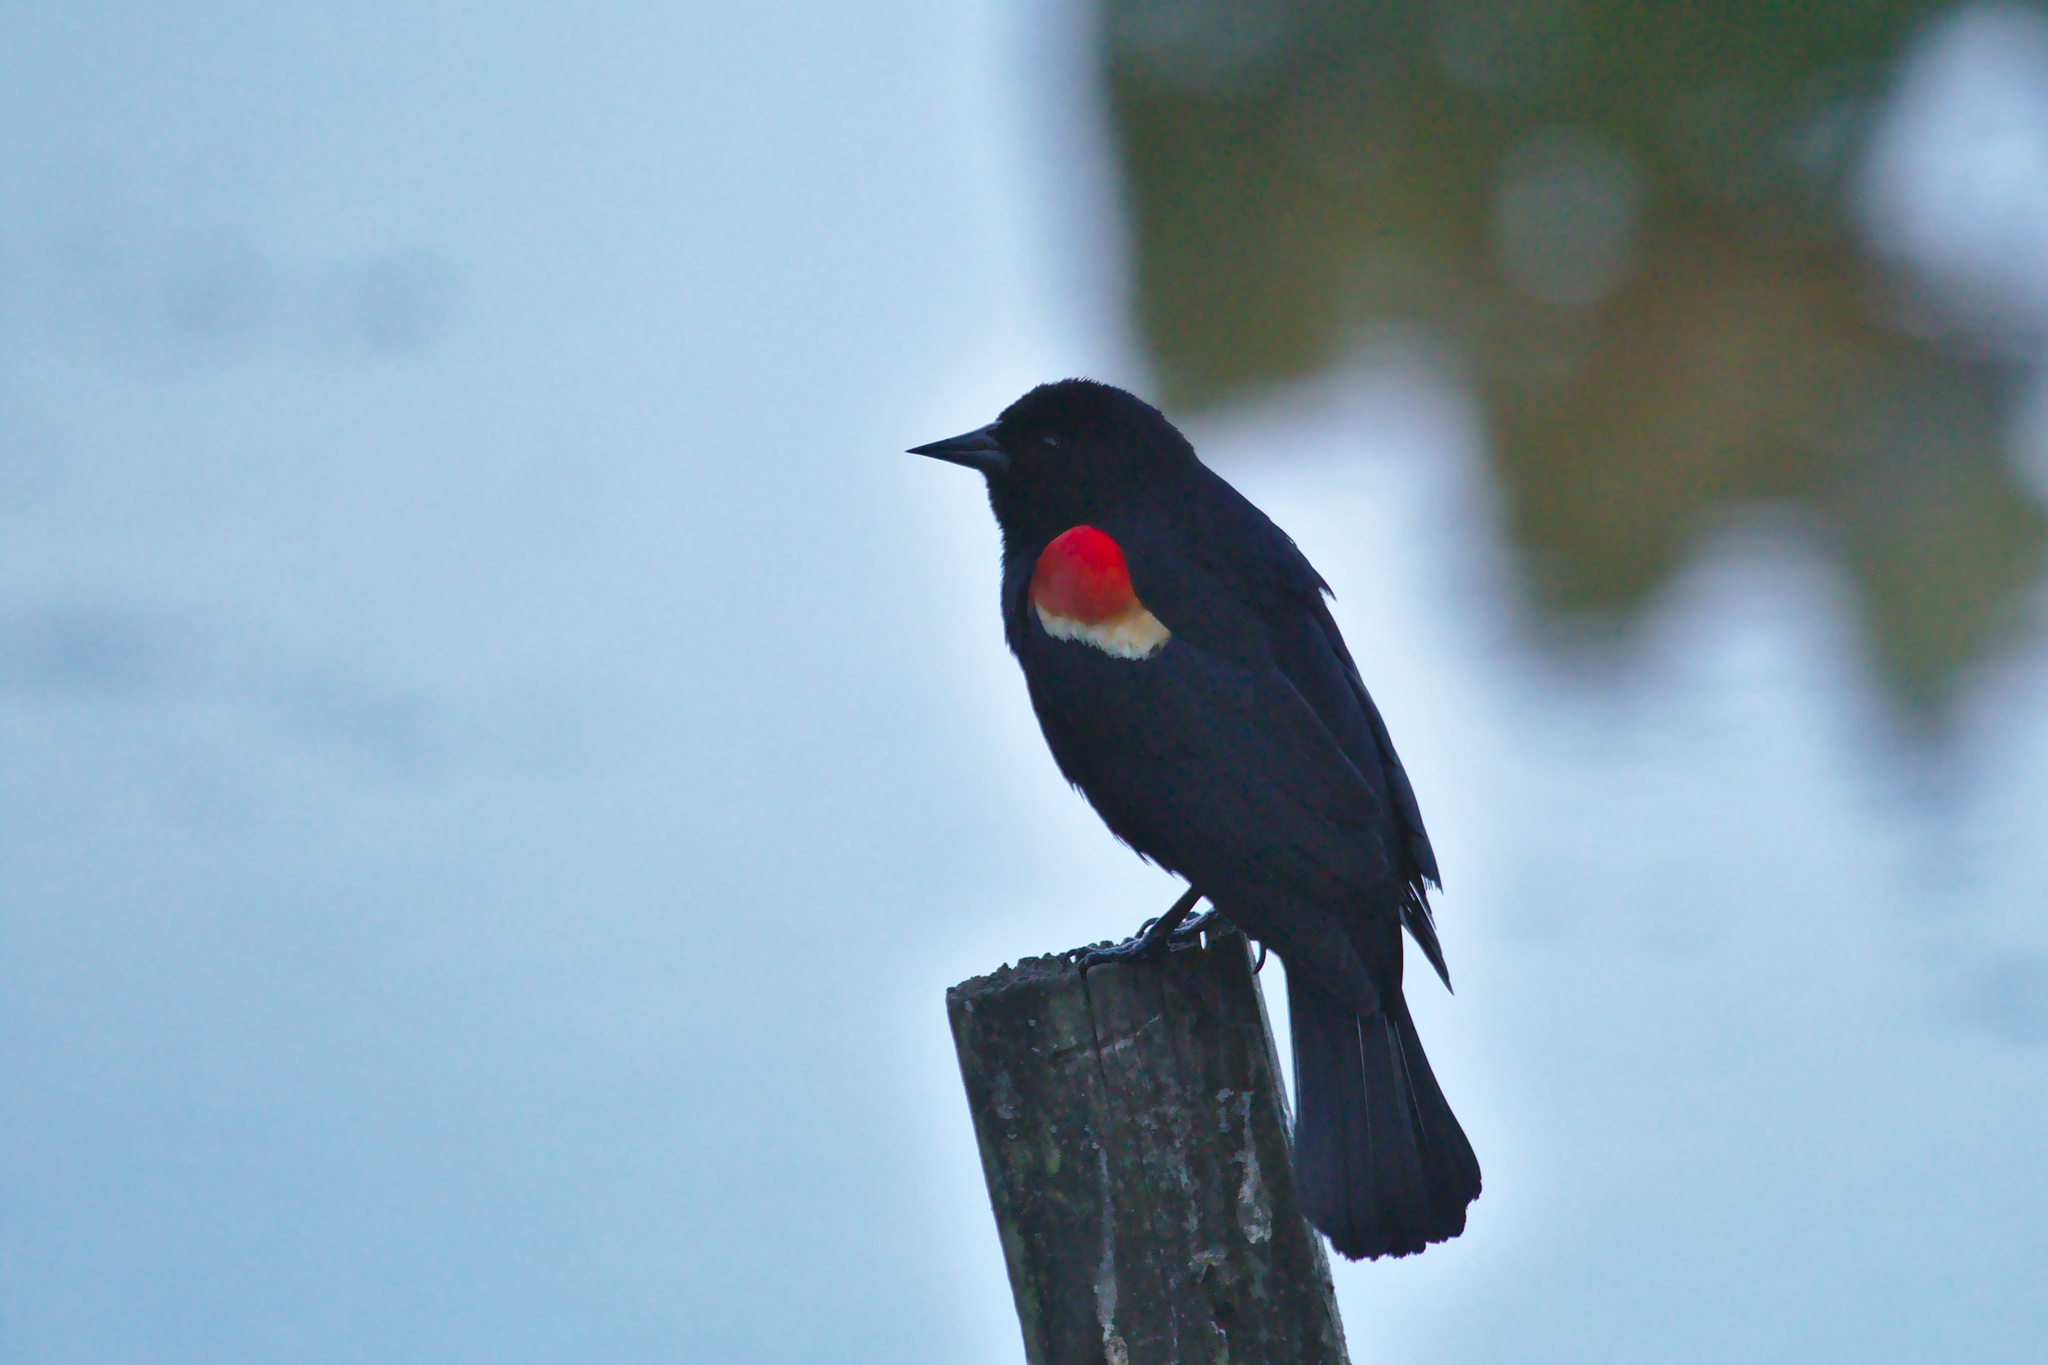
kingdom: Animalia
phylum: Chordata
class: Aves
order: Passeriformes
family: Icteridae
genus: Agelaius
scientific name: Agelaius phoeniceus
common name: Red-winged blackbird
